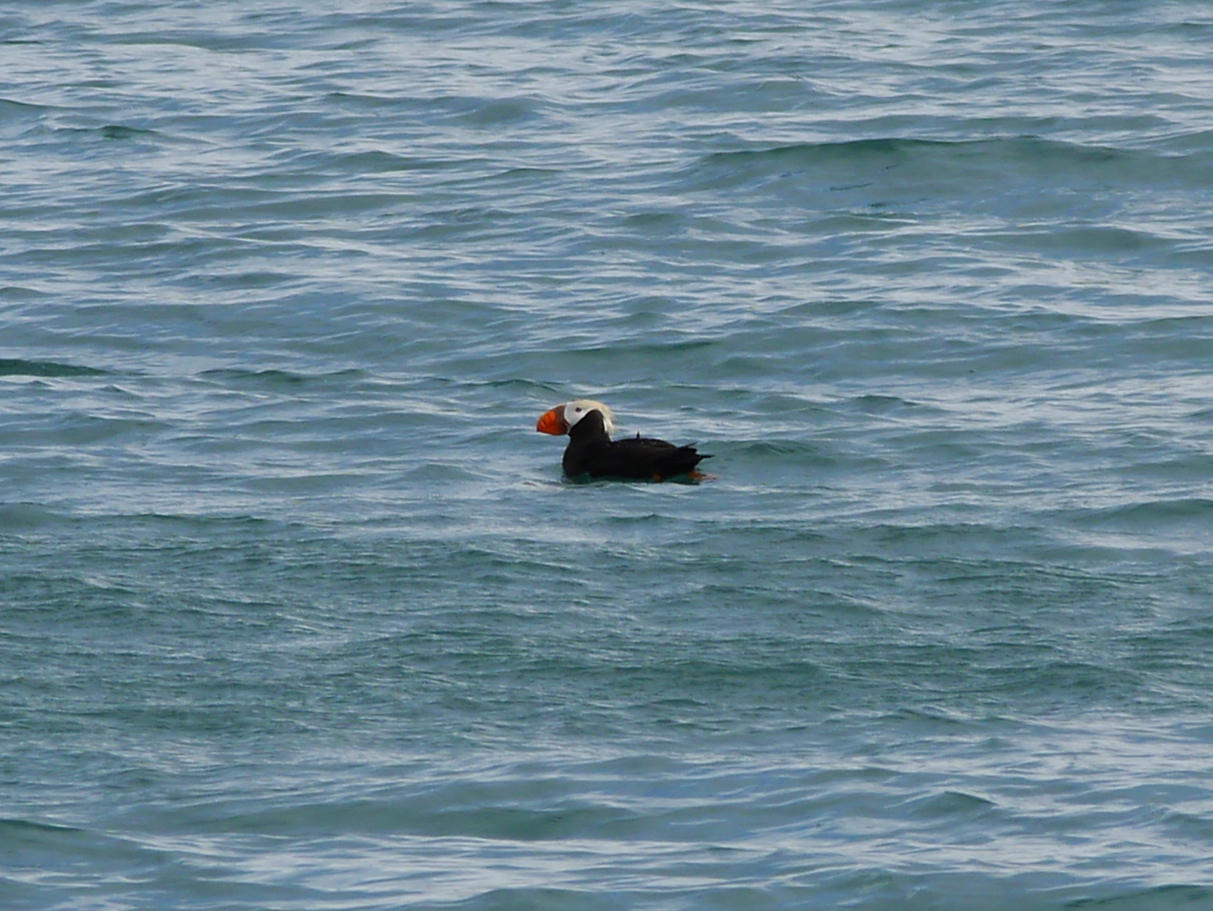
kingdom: Animalia
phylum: Chordata
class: Aves
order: Charadriiformes
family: Alcidae
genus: Fratercula
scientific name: Fratercula cirrhata
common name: Tufted puffin
